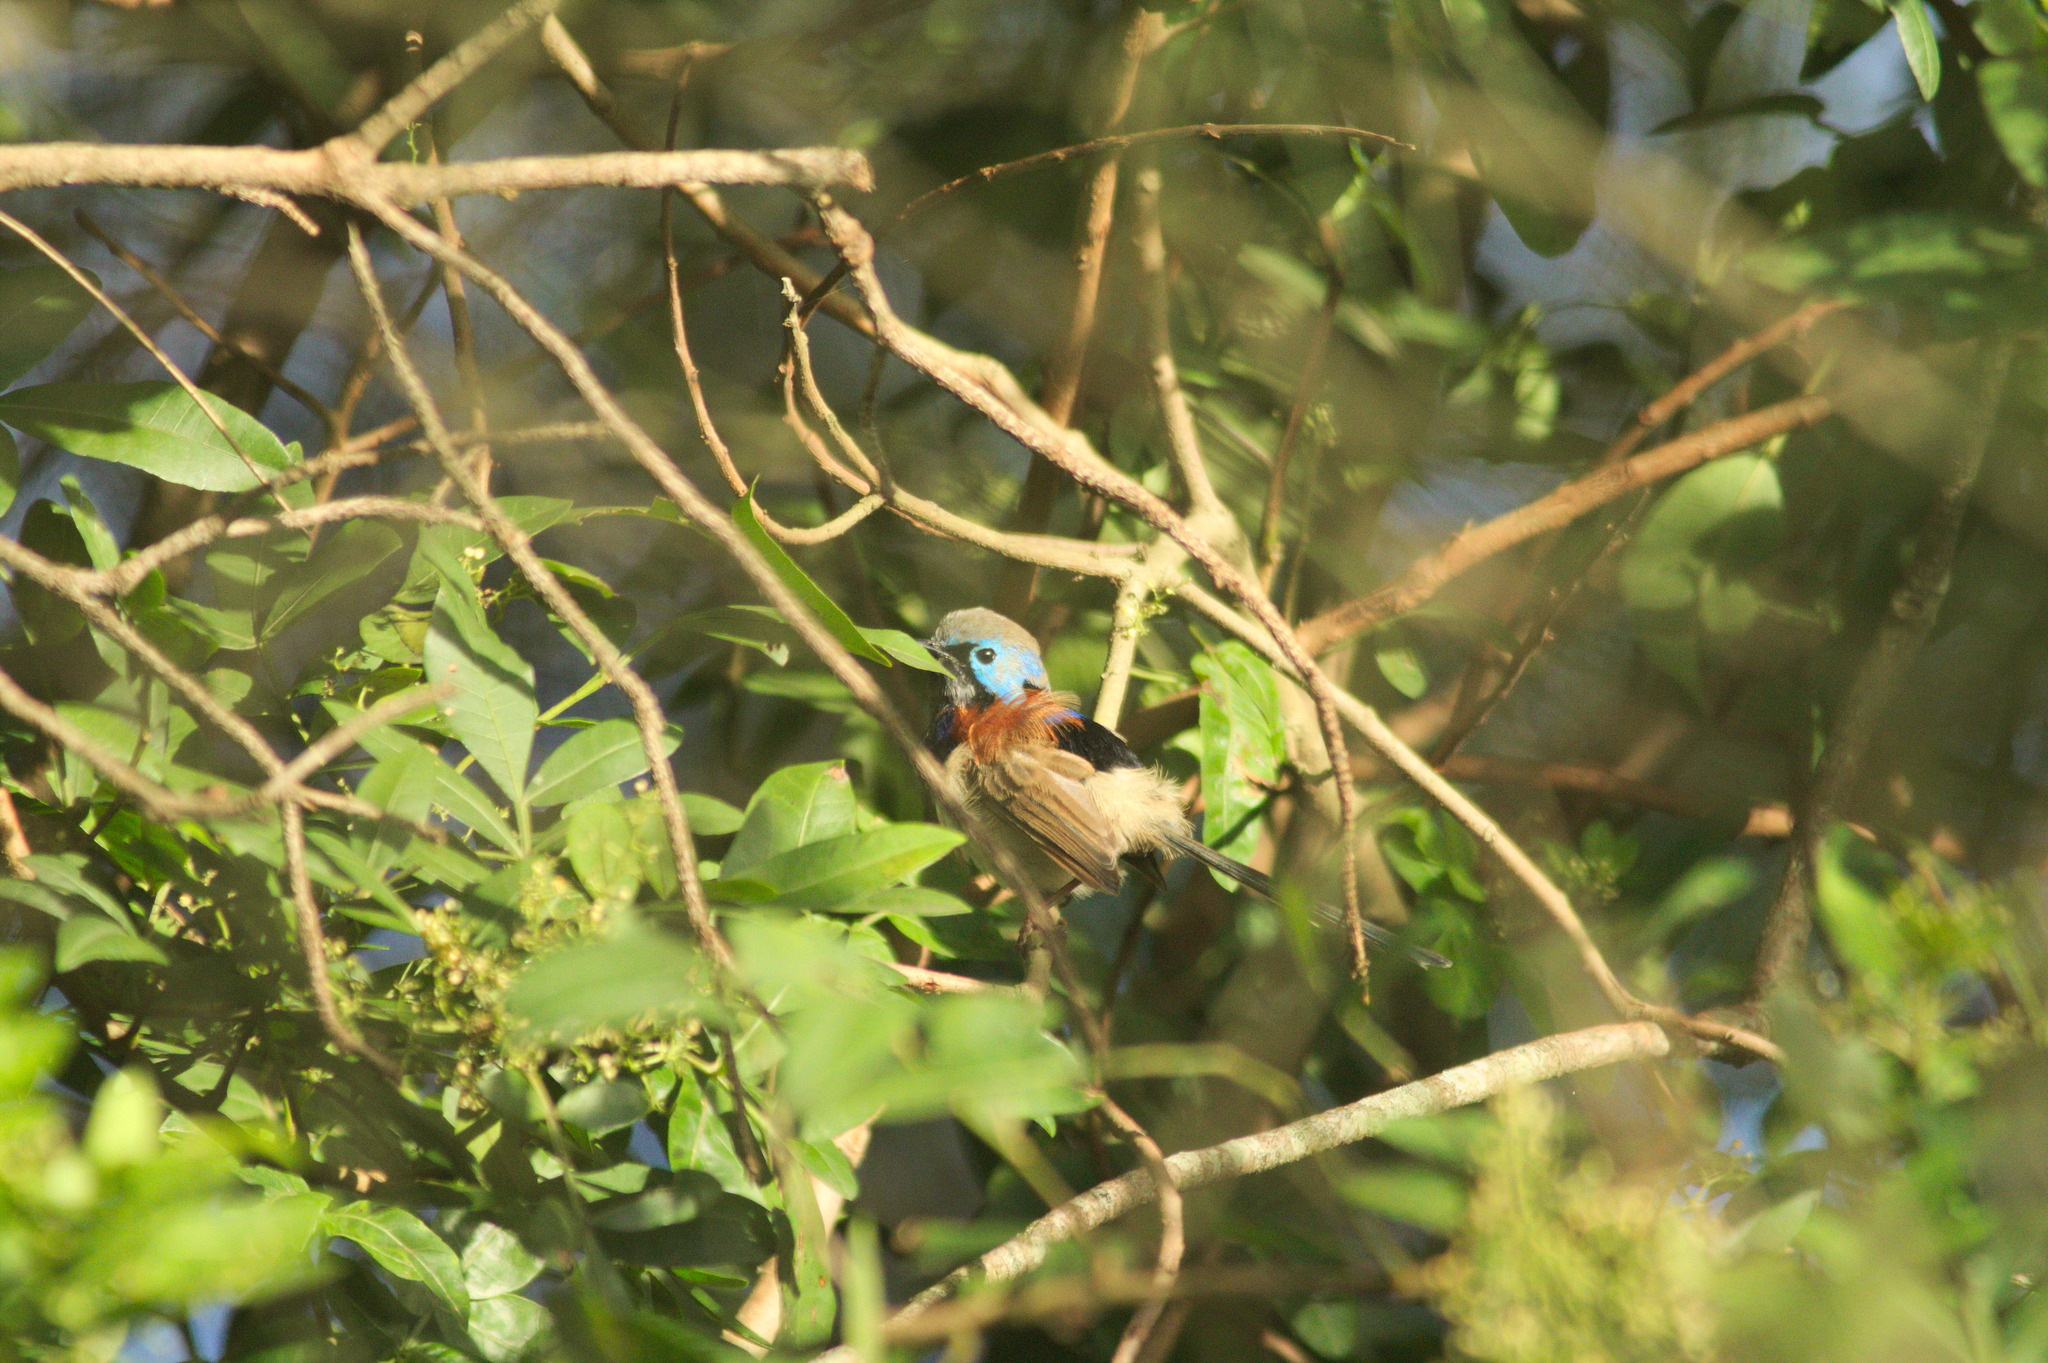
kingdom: Animalia
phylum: Chordata
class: Aves
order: Passeriformes
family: Maluridae
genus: Malurus
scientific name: Malurus lamberti
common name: Variegated fairywren
